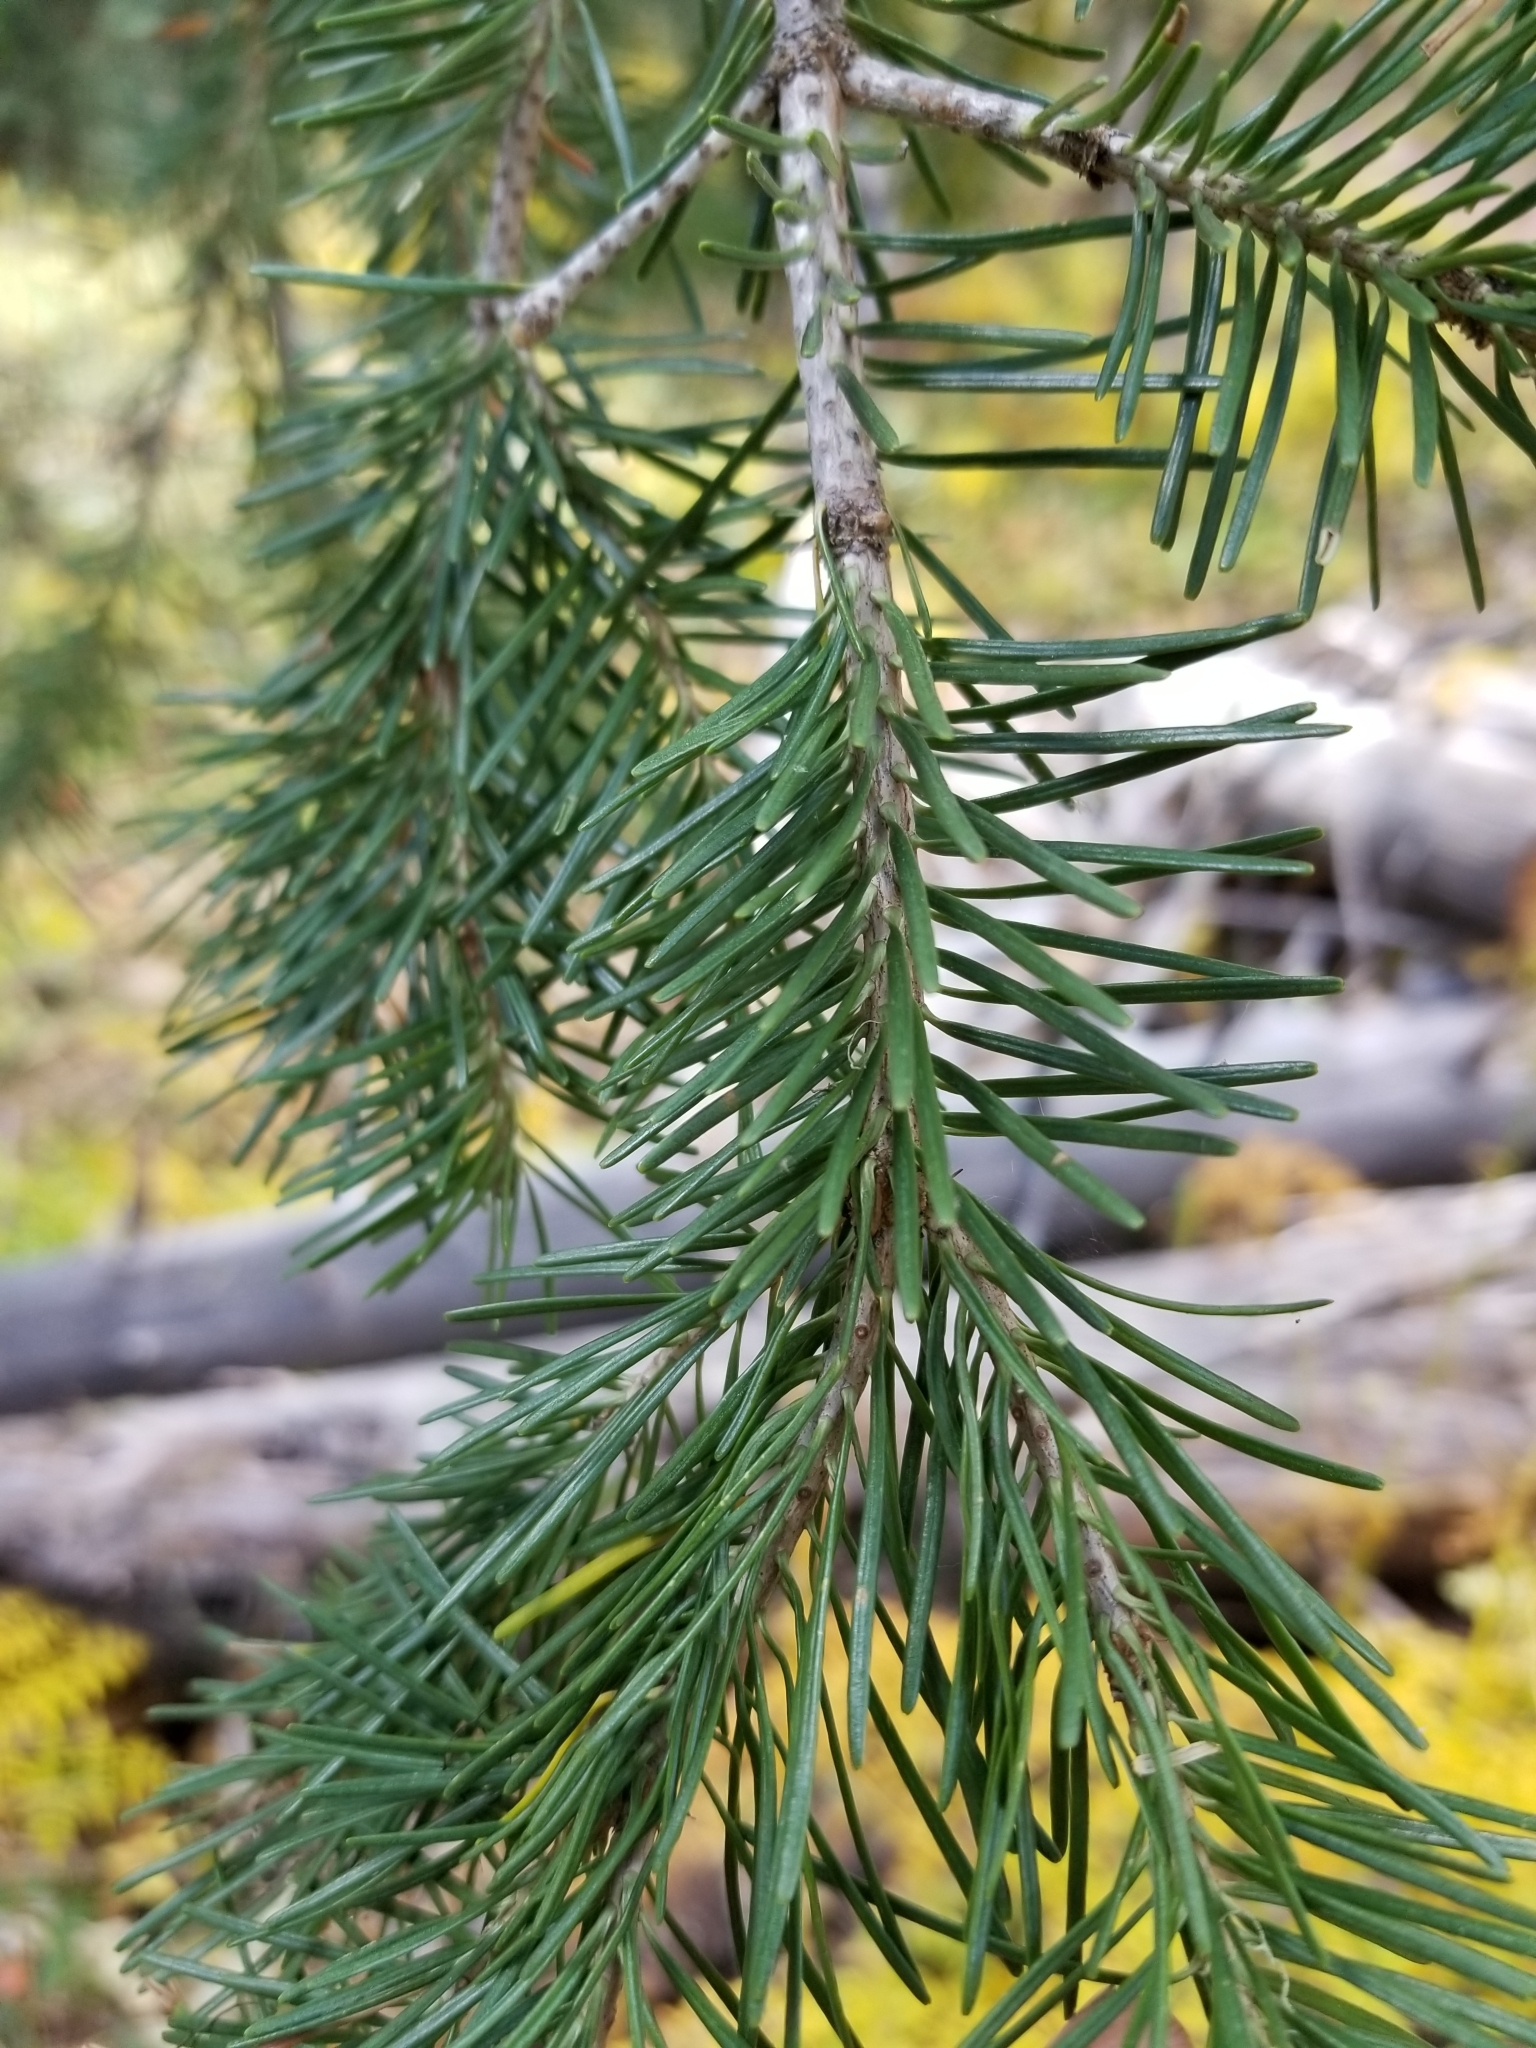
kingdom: Plantae
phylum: Tracheophyta
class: Pinopsida
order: Pinales
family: Pinaceae
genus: Abies
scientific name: Abies lasiocarpa
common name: Subalpine fir
